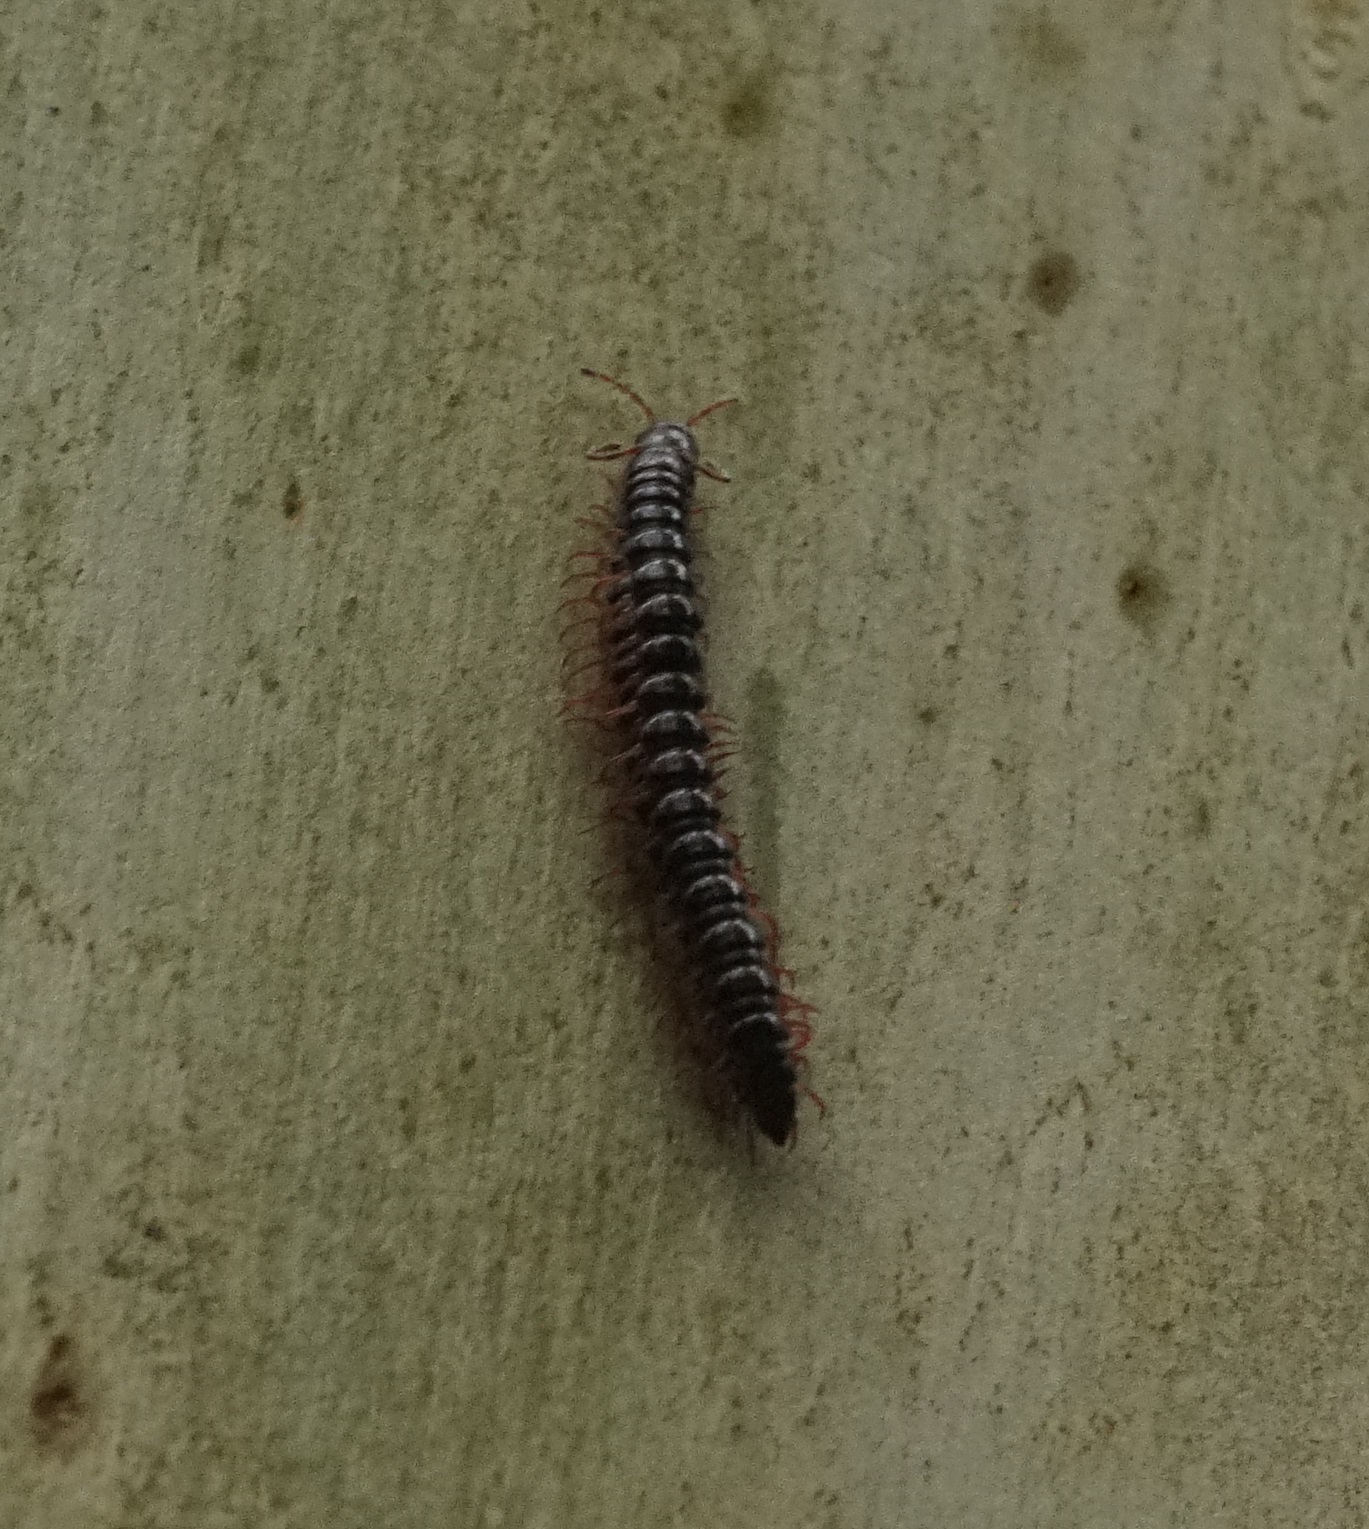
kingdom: Animalia
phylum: Arthropoda
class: Diplopoda
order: Polydesmida
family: Paradoxosomatidae
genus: Heterocladosoma
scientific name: Heterocladosoma
